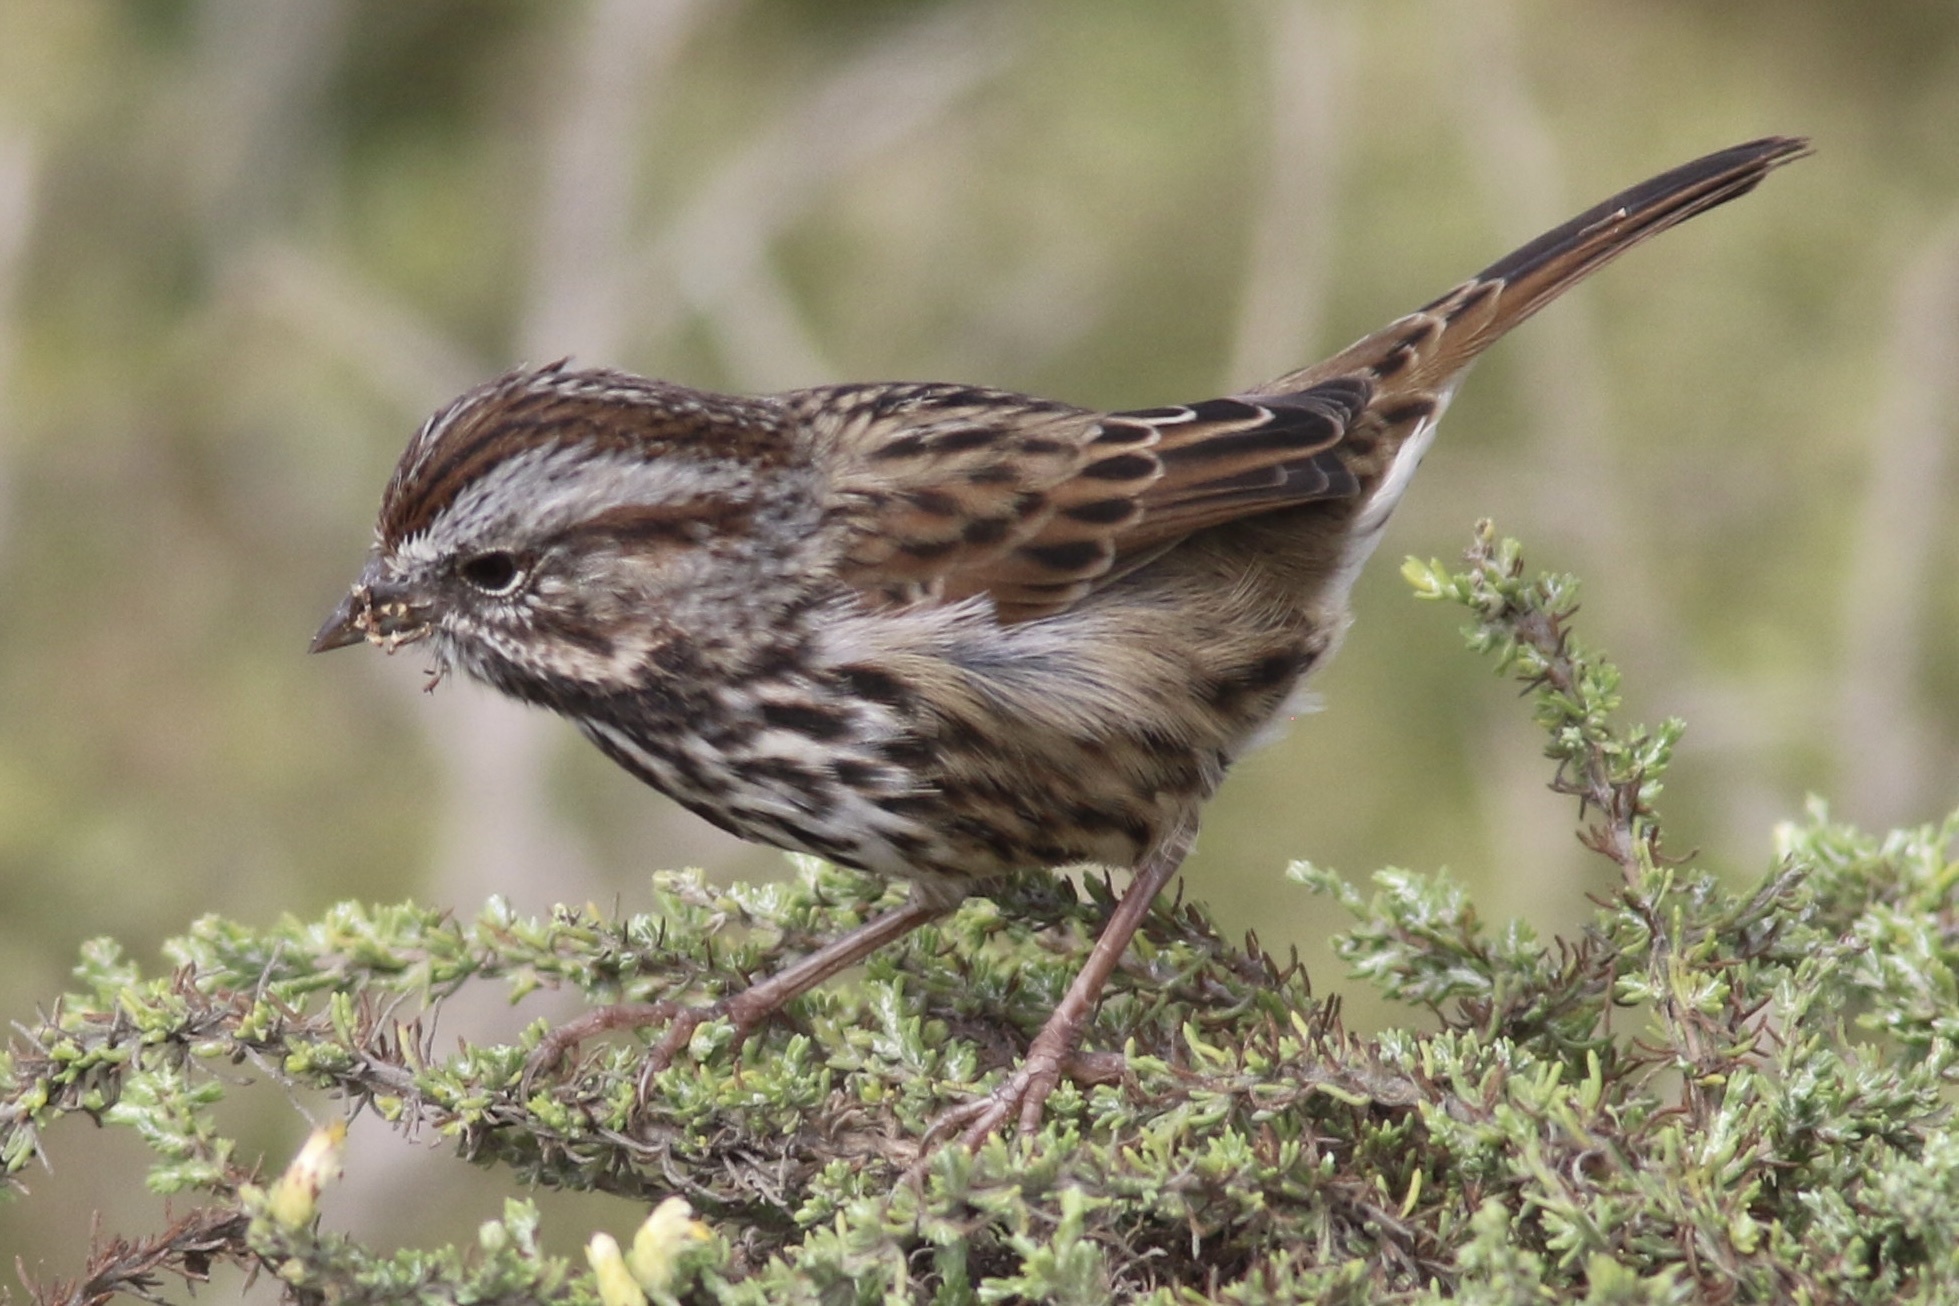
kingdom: Animalia
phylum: Chordata
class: Aves
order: Passeriformes
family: Passerellidae
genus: Melospiza
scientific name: Melospiza melodia
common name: Song sparrow
